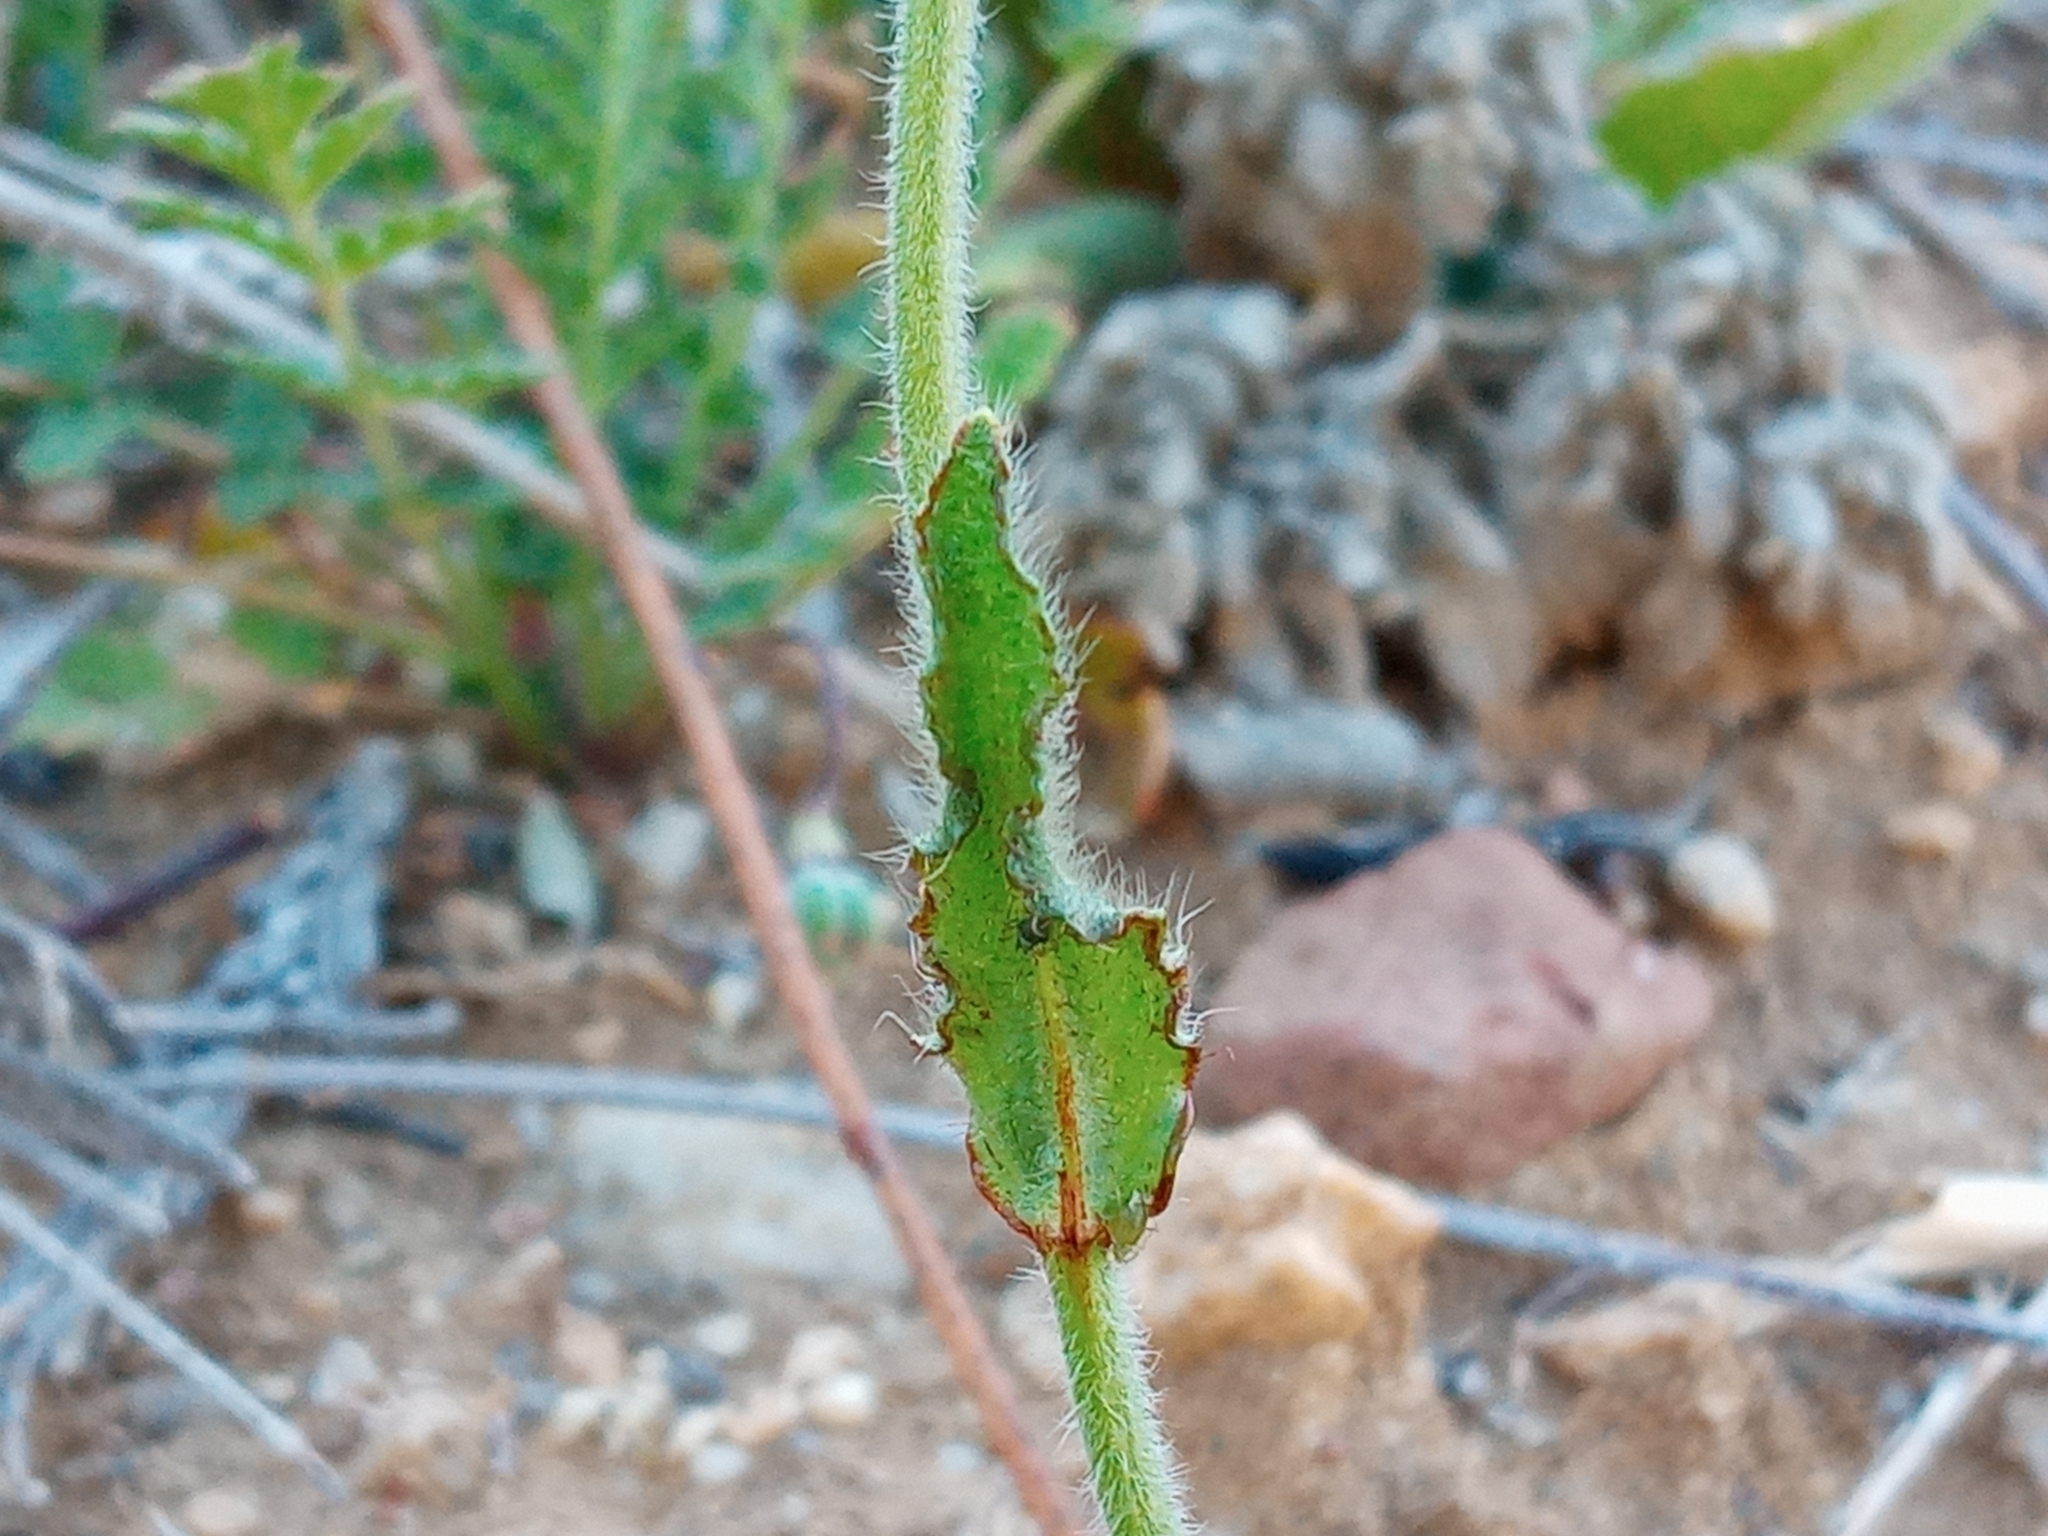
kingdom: Plantae
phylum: Tracheophyta
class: Magnoliopsida
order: Boraginales
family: Boraginaceae
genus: Plagiobothrys
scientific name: Plagiobothrys nothofulvus
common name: Popcorn-flower
